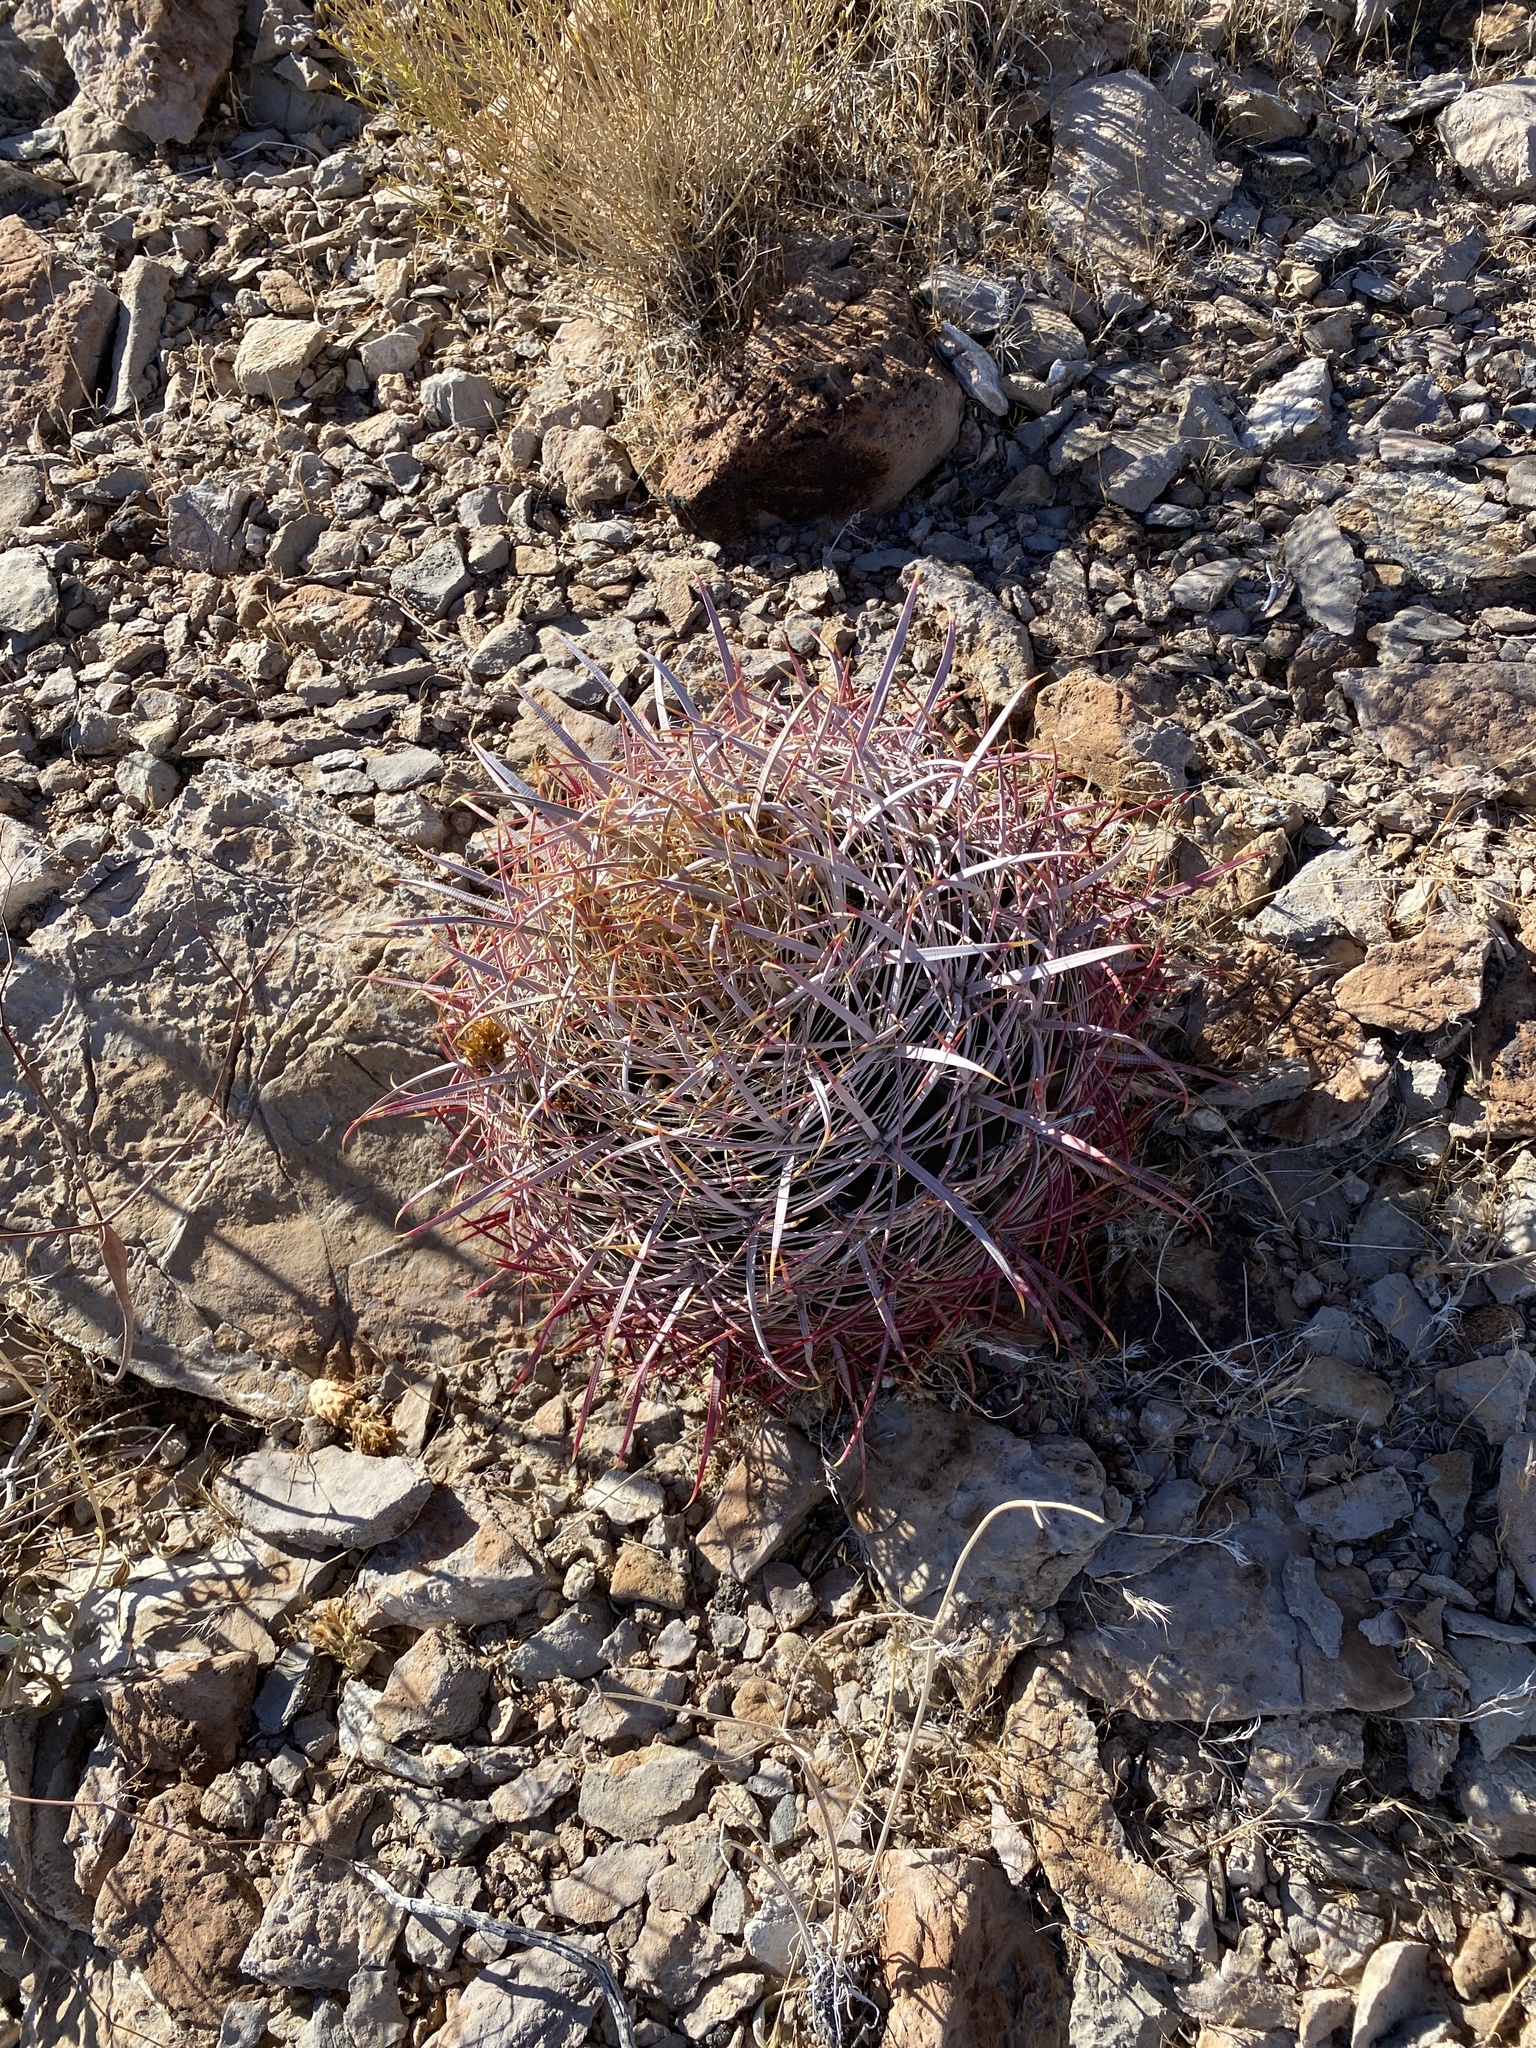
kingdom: Plantae
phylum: Tracheophyta
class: Magnoliopsida
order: Caryophyllales
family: Cactaceae
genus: Ferocactus
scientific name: Ferocactus cylindraceus
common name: California barrel cactus
